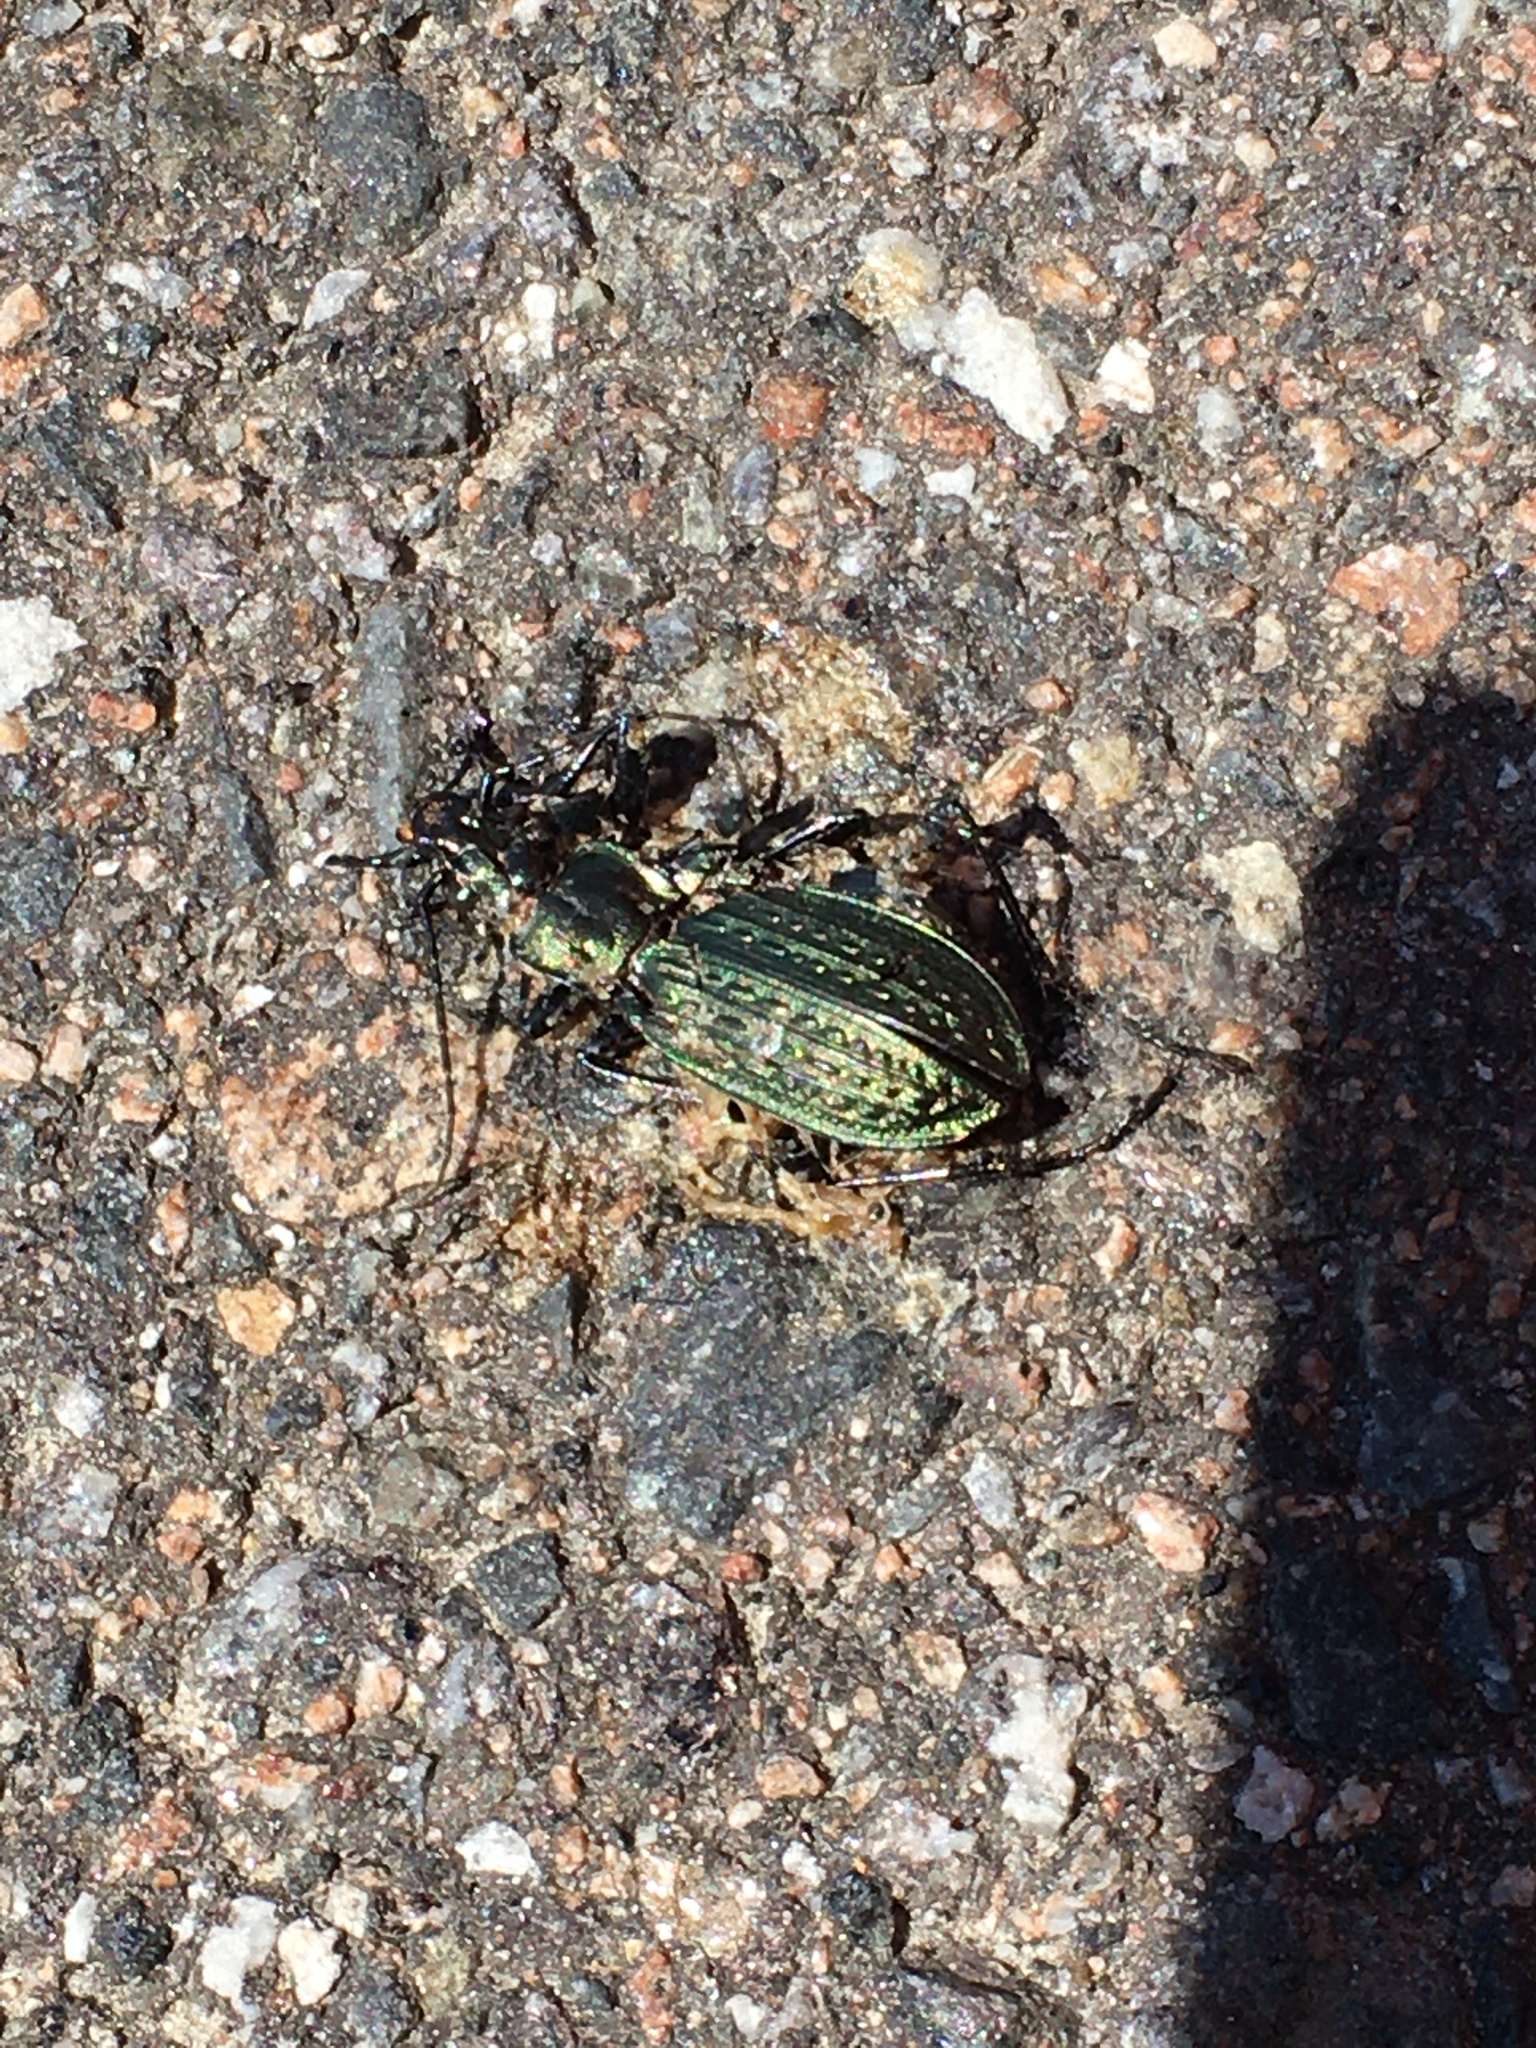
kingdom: Animalia
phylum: Arthropoda
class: Insecta
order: Coleoptera
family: Carabidae
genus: Carabus
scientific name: Carabus granulatus
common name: Granulate ground beetle
